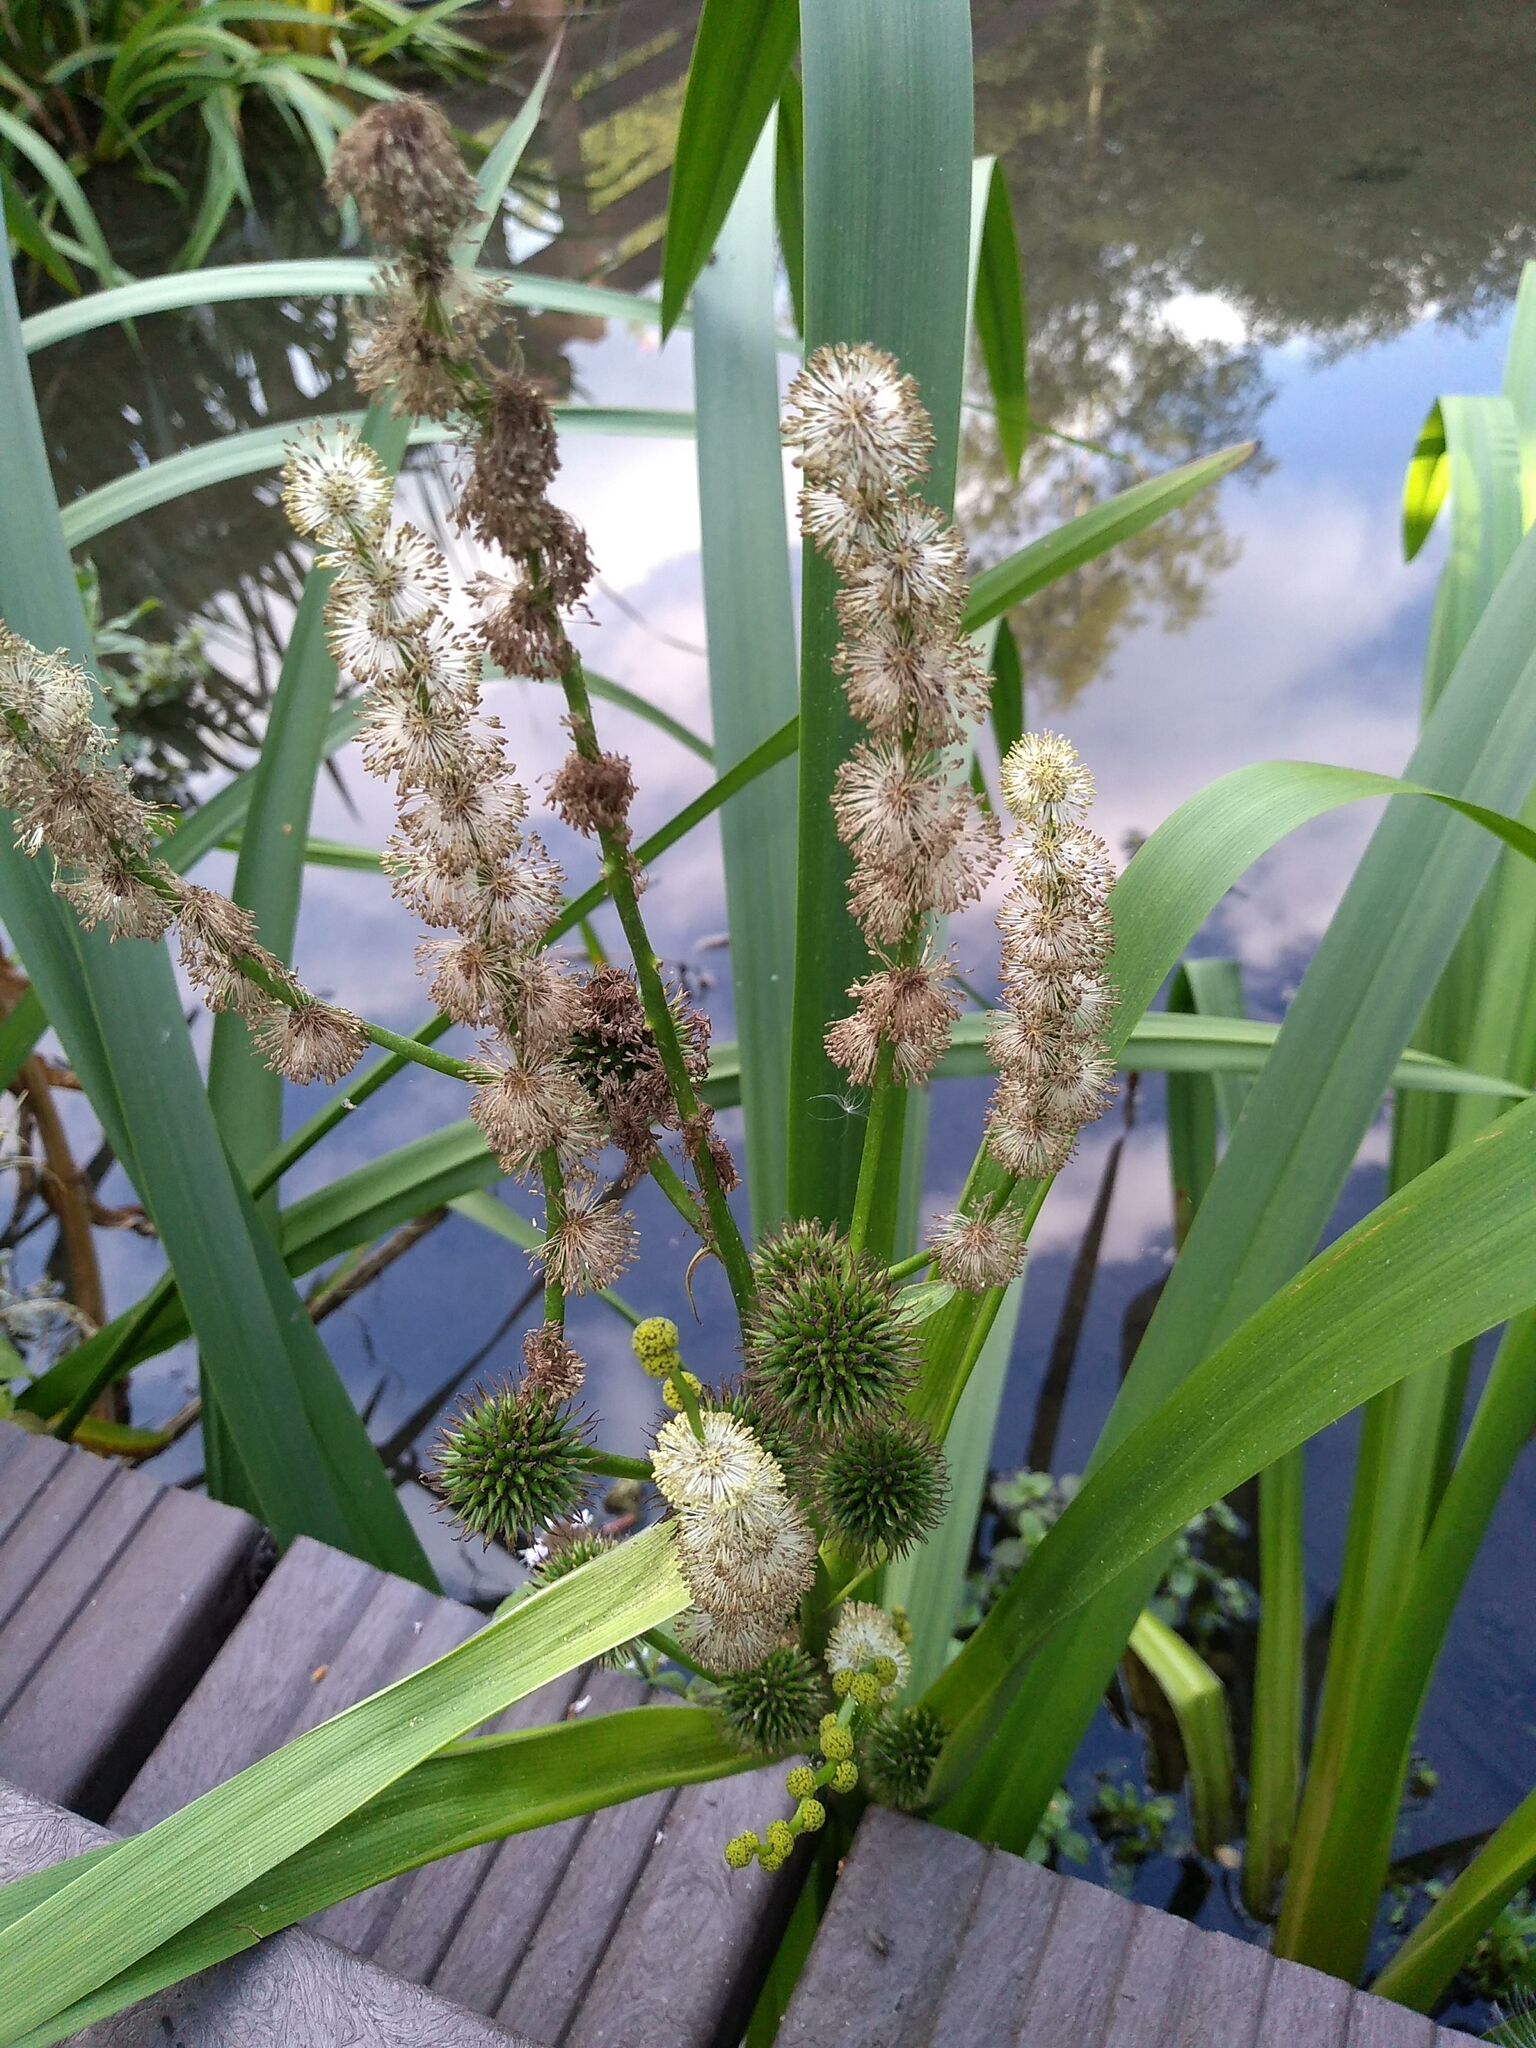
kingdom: Plantae
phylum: Tracheophyta
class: Liliopsida
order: Poales
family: Typhaceae
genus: Sparganium
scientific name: Sparganium erectum
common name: Branched bur-reed
